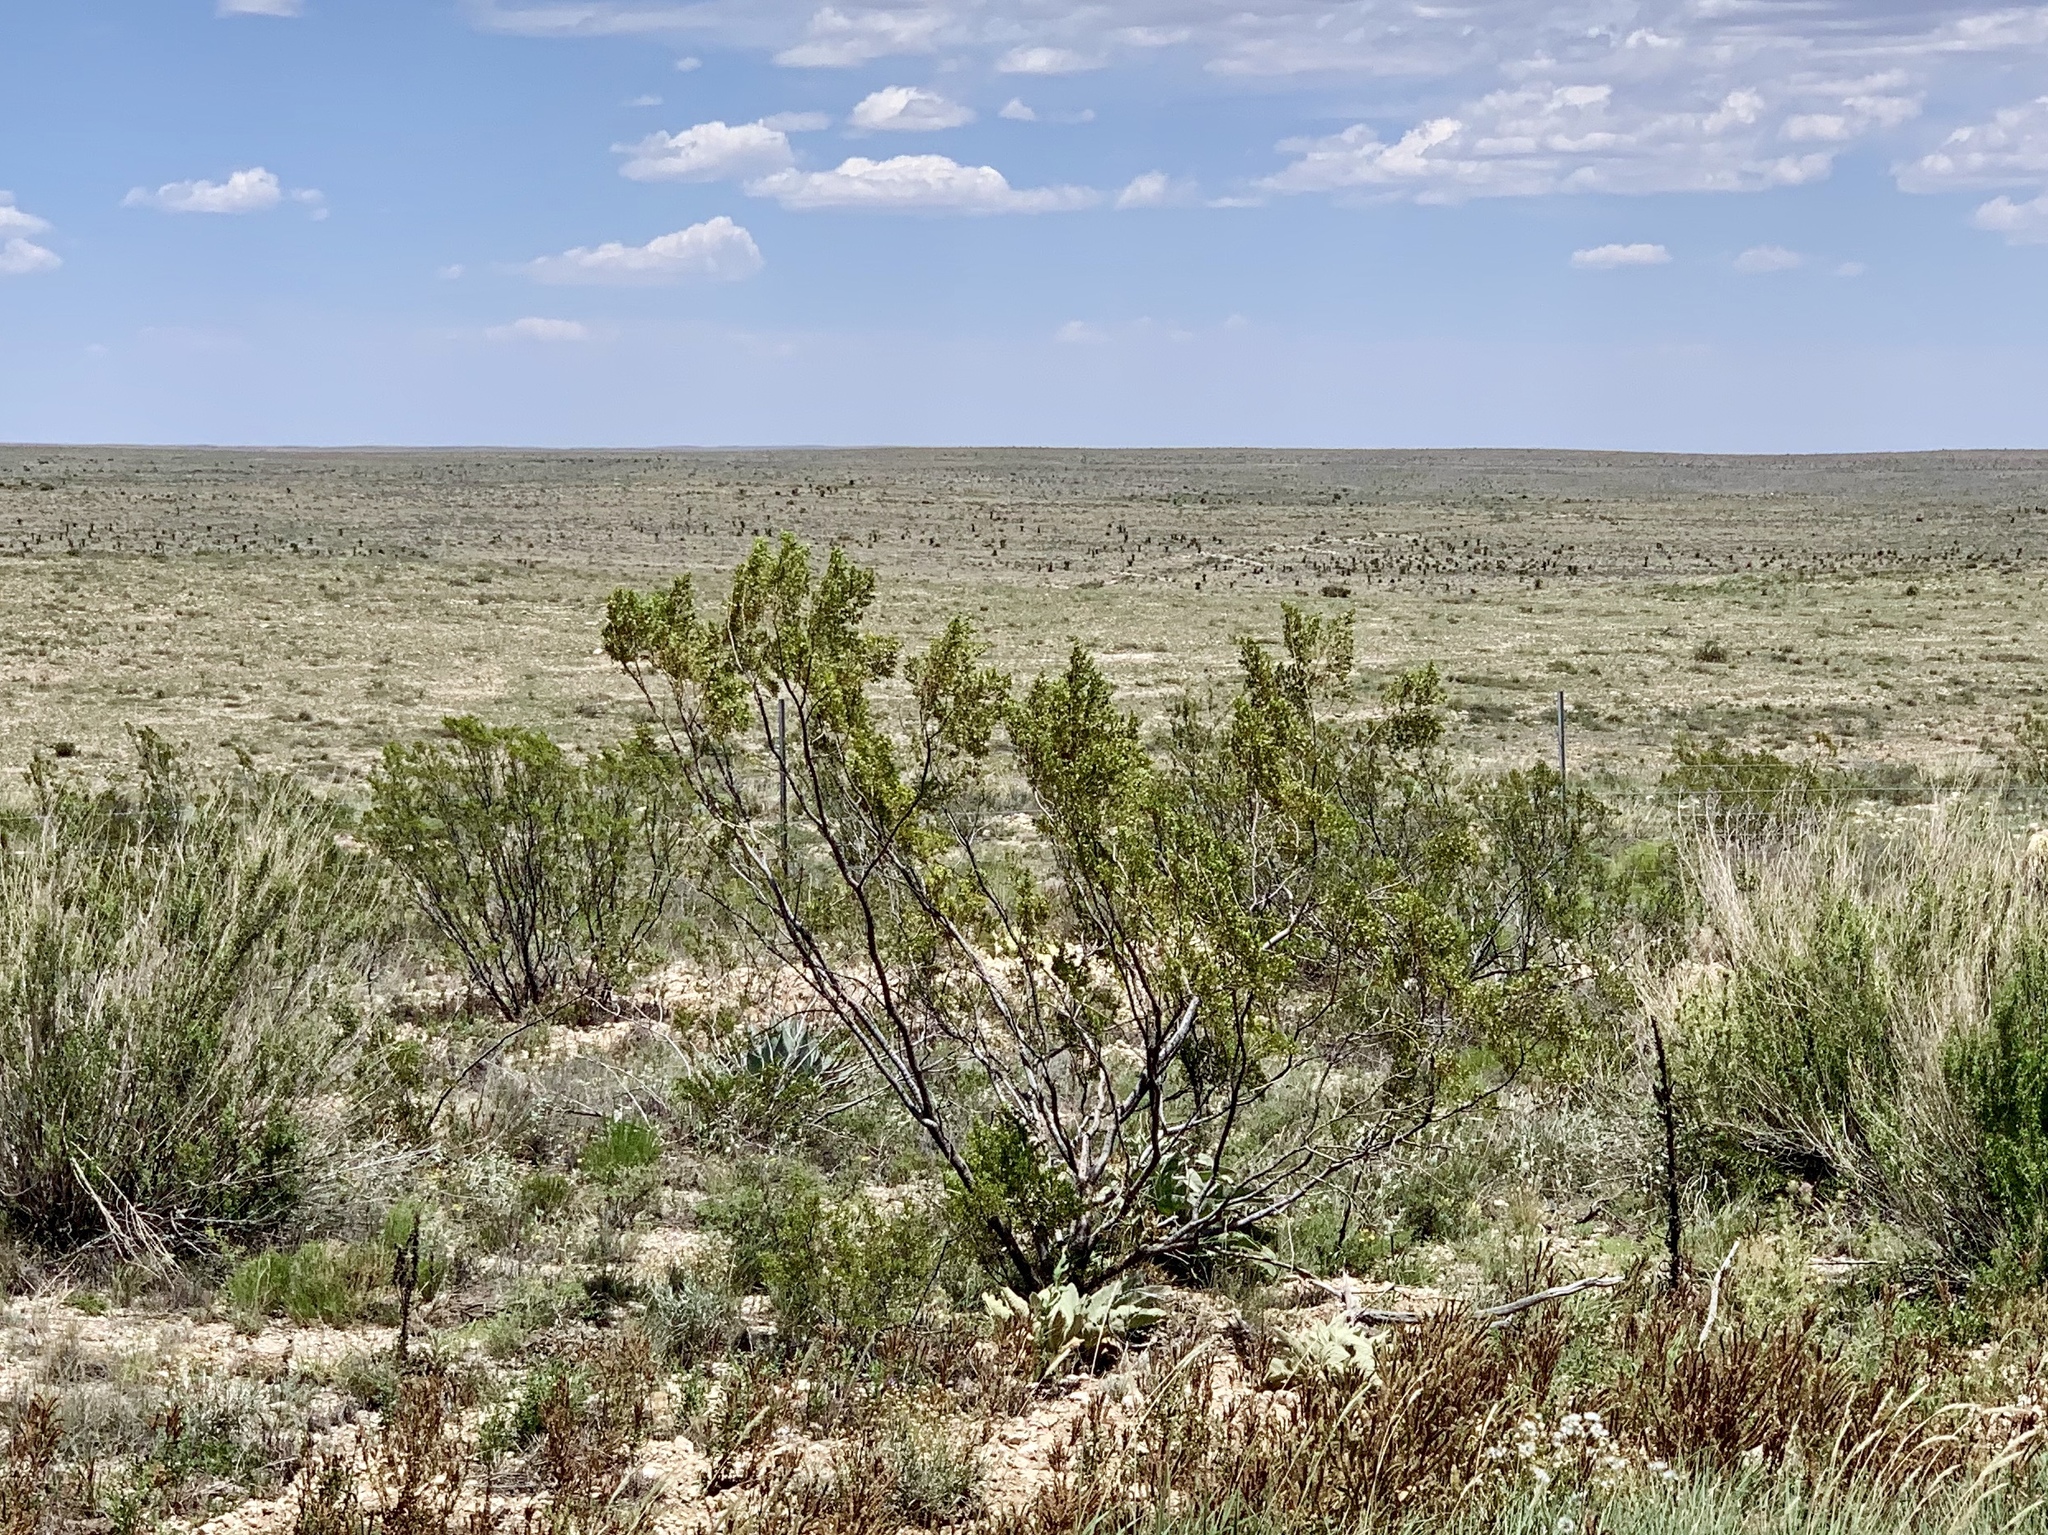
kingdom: Plantae
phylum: Tracheophyta
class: Magnoliopsida
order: Zygophyllales
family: Zygophyllaceae
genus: Larrea
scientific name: Larrea tridentata
